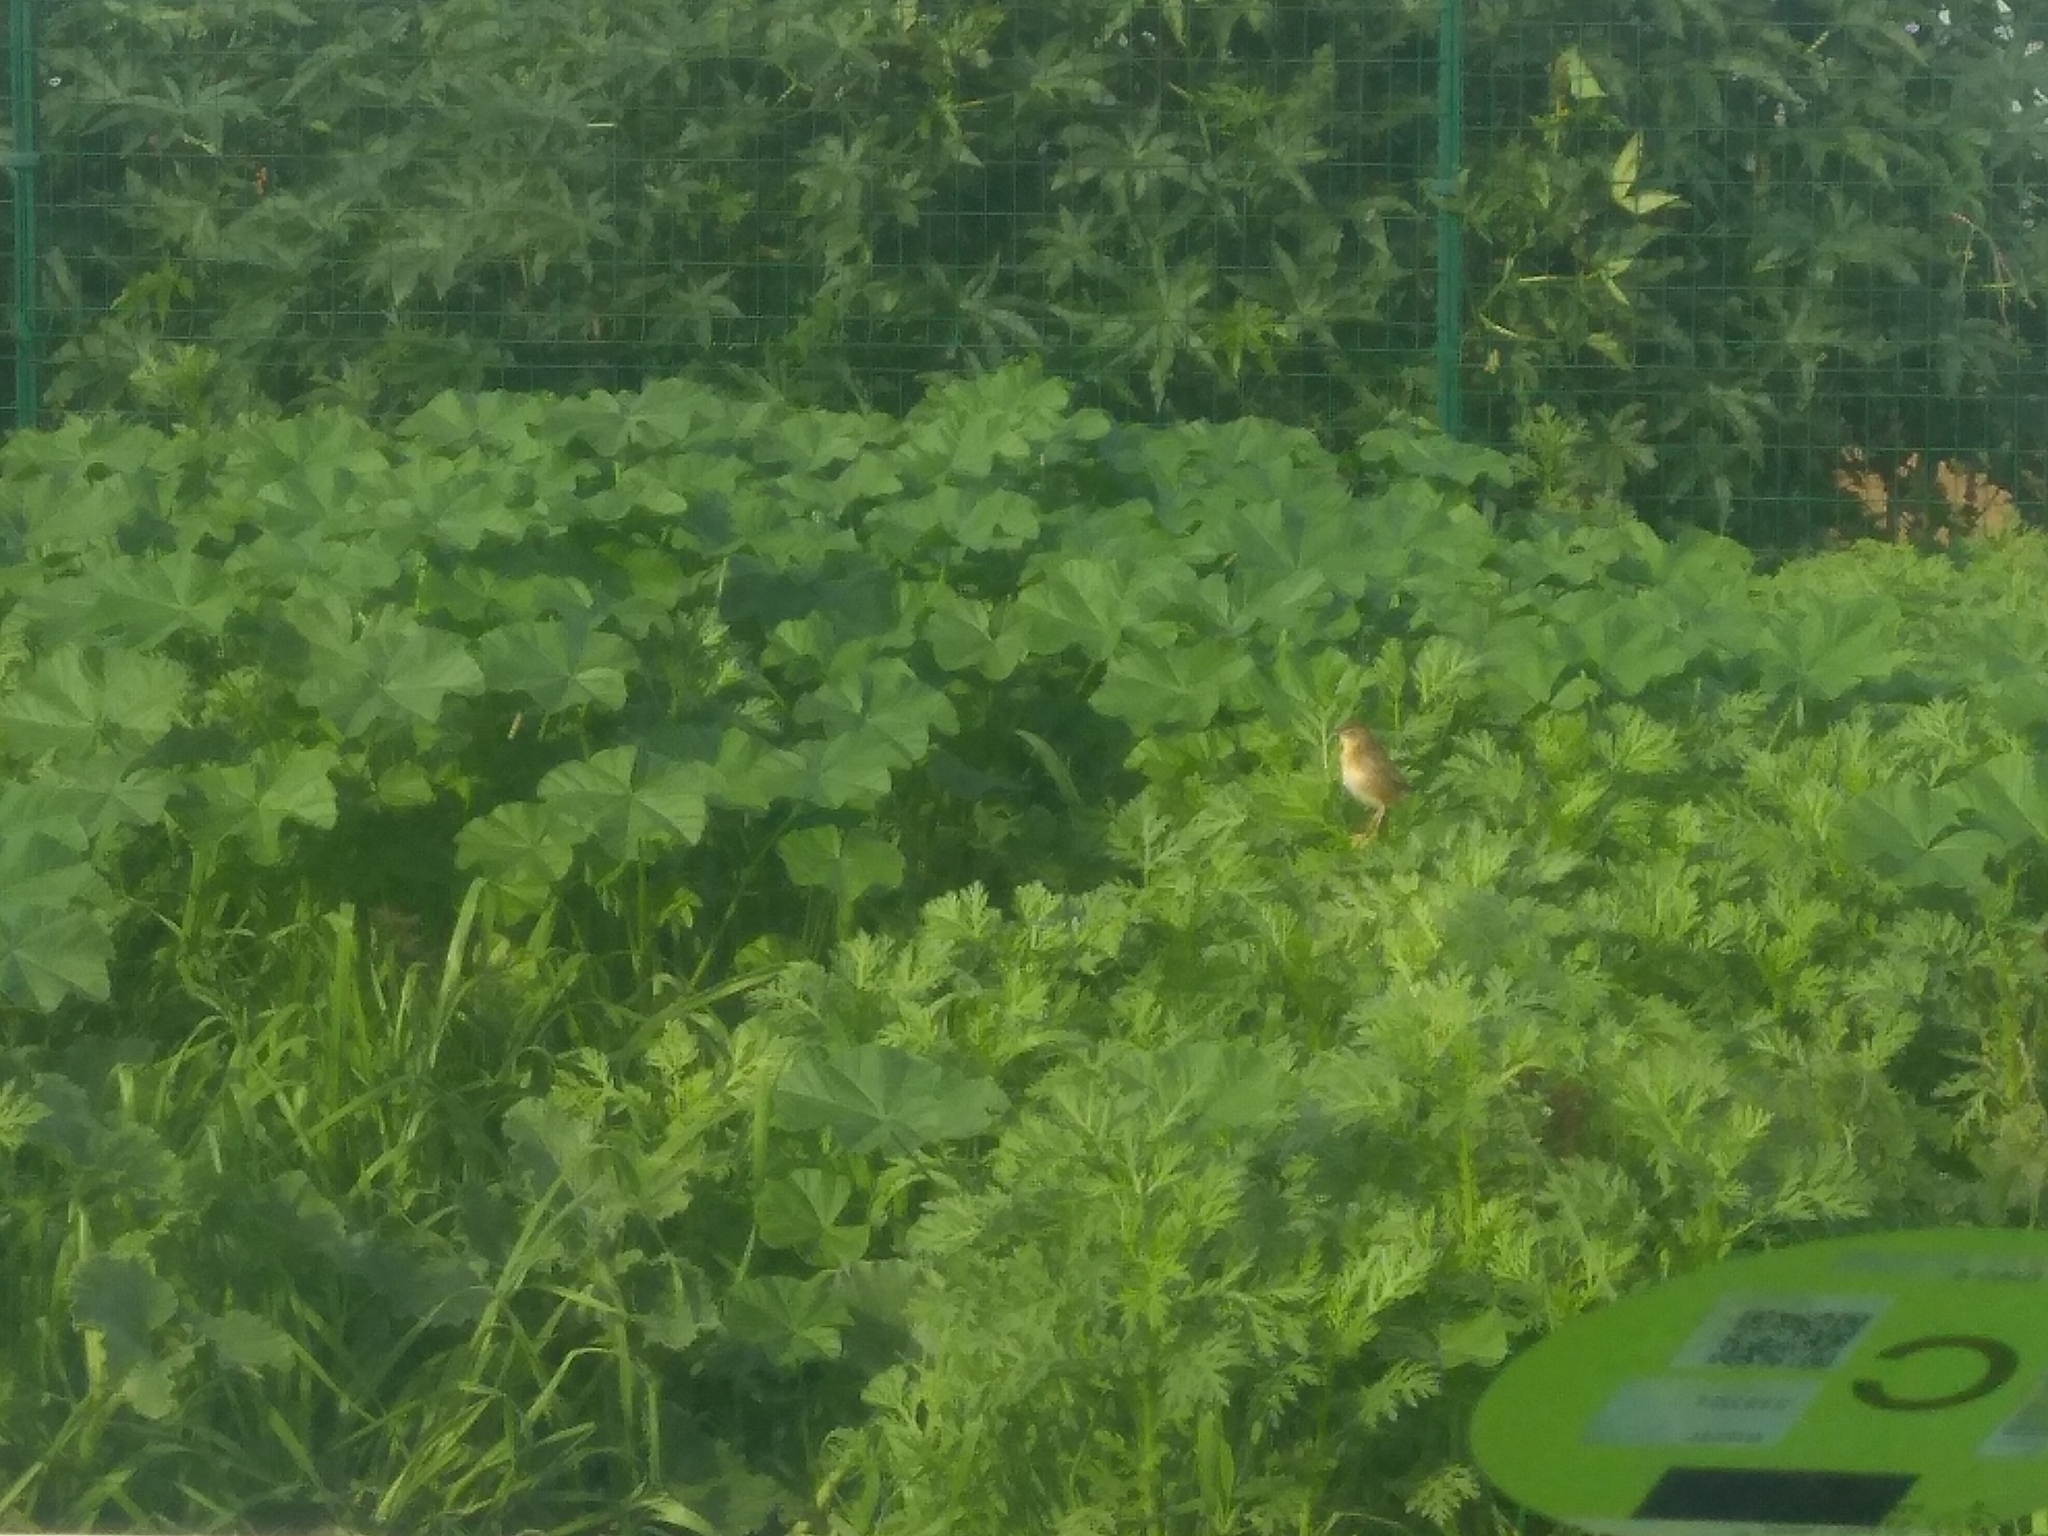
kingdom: Animalia
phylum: Chordata
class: Aves
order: Passeriformes
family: Cisticolidae
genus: Cisticola
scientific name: Cisticola juncidis
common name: Zitting cisticola
